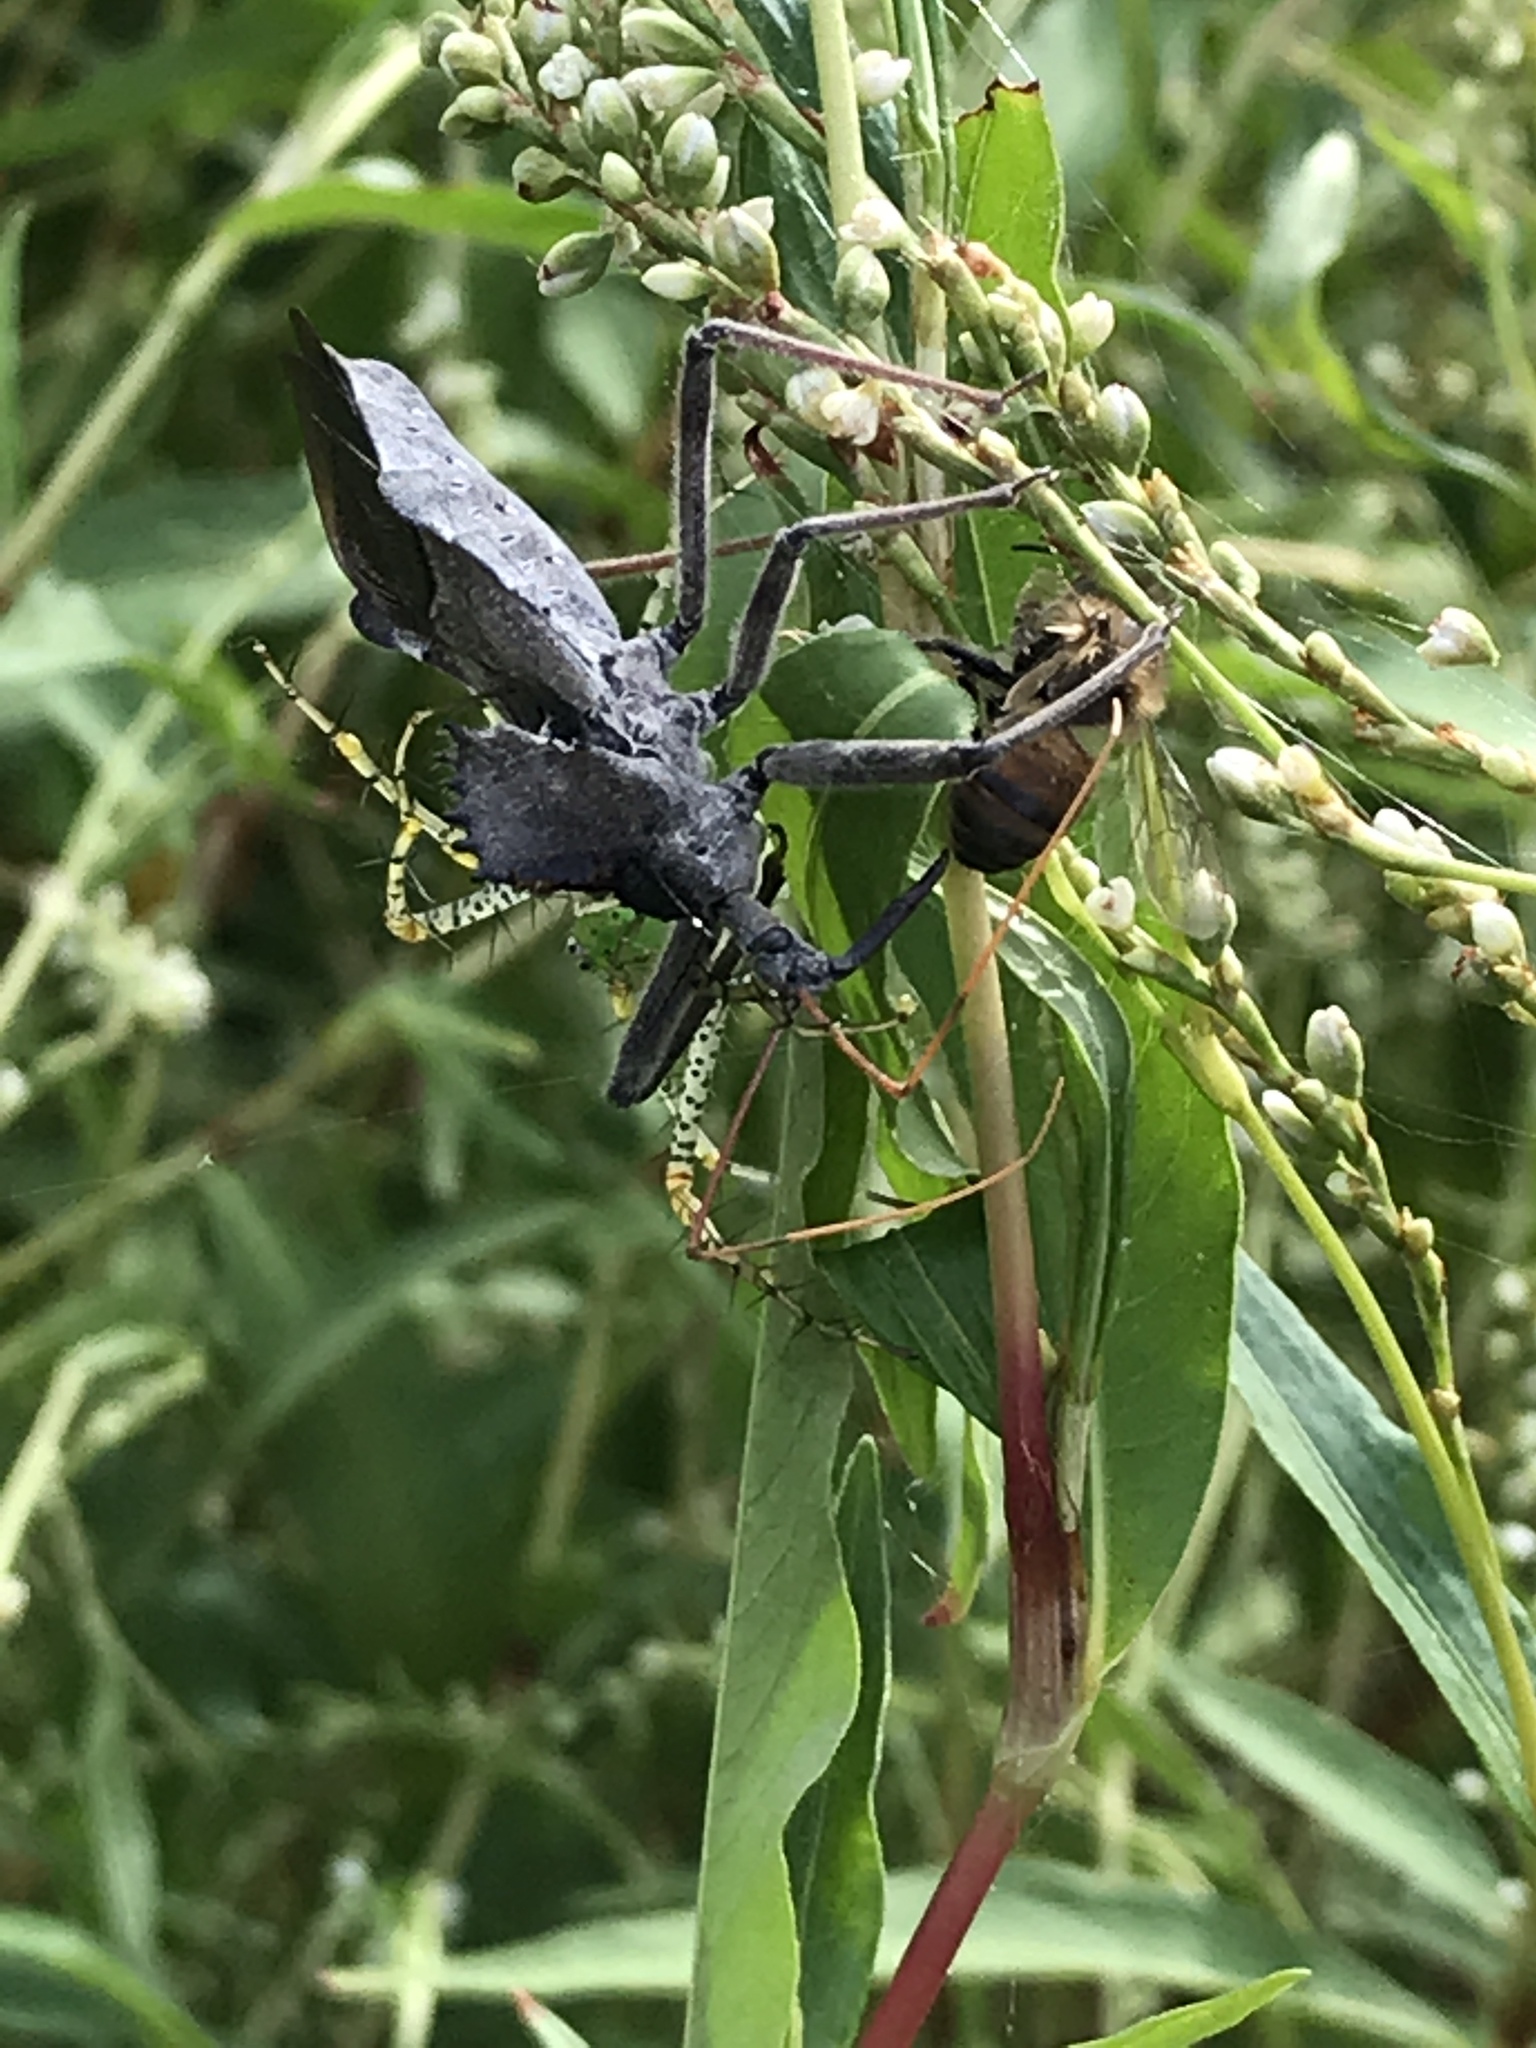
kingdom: Animalia
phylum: Arthropoda
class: Insecta
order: Hemiptera
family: Reduviidae
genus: Arilus
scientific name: Arilus cristatus
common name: North american wheel bug
